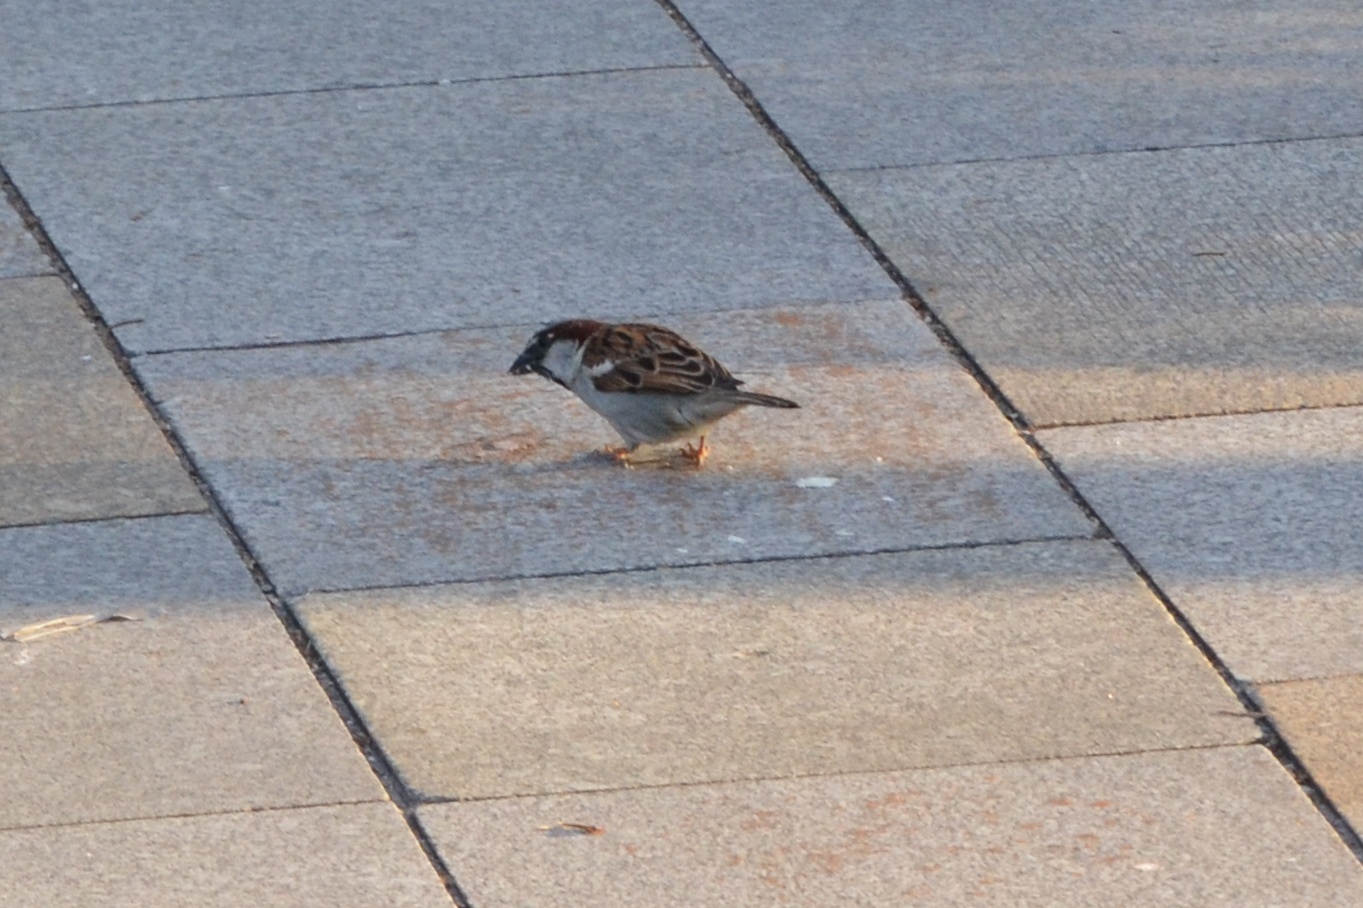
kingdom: Animalia
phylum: Chordata
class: Aves
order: Passeriformes
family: Passeridae
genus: Passer
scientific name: Passer domesticus
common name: House sparrow
